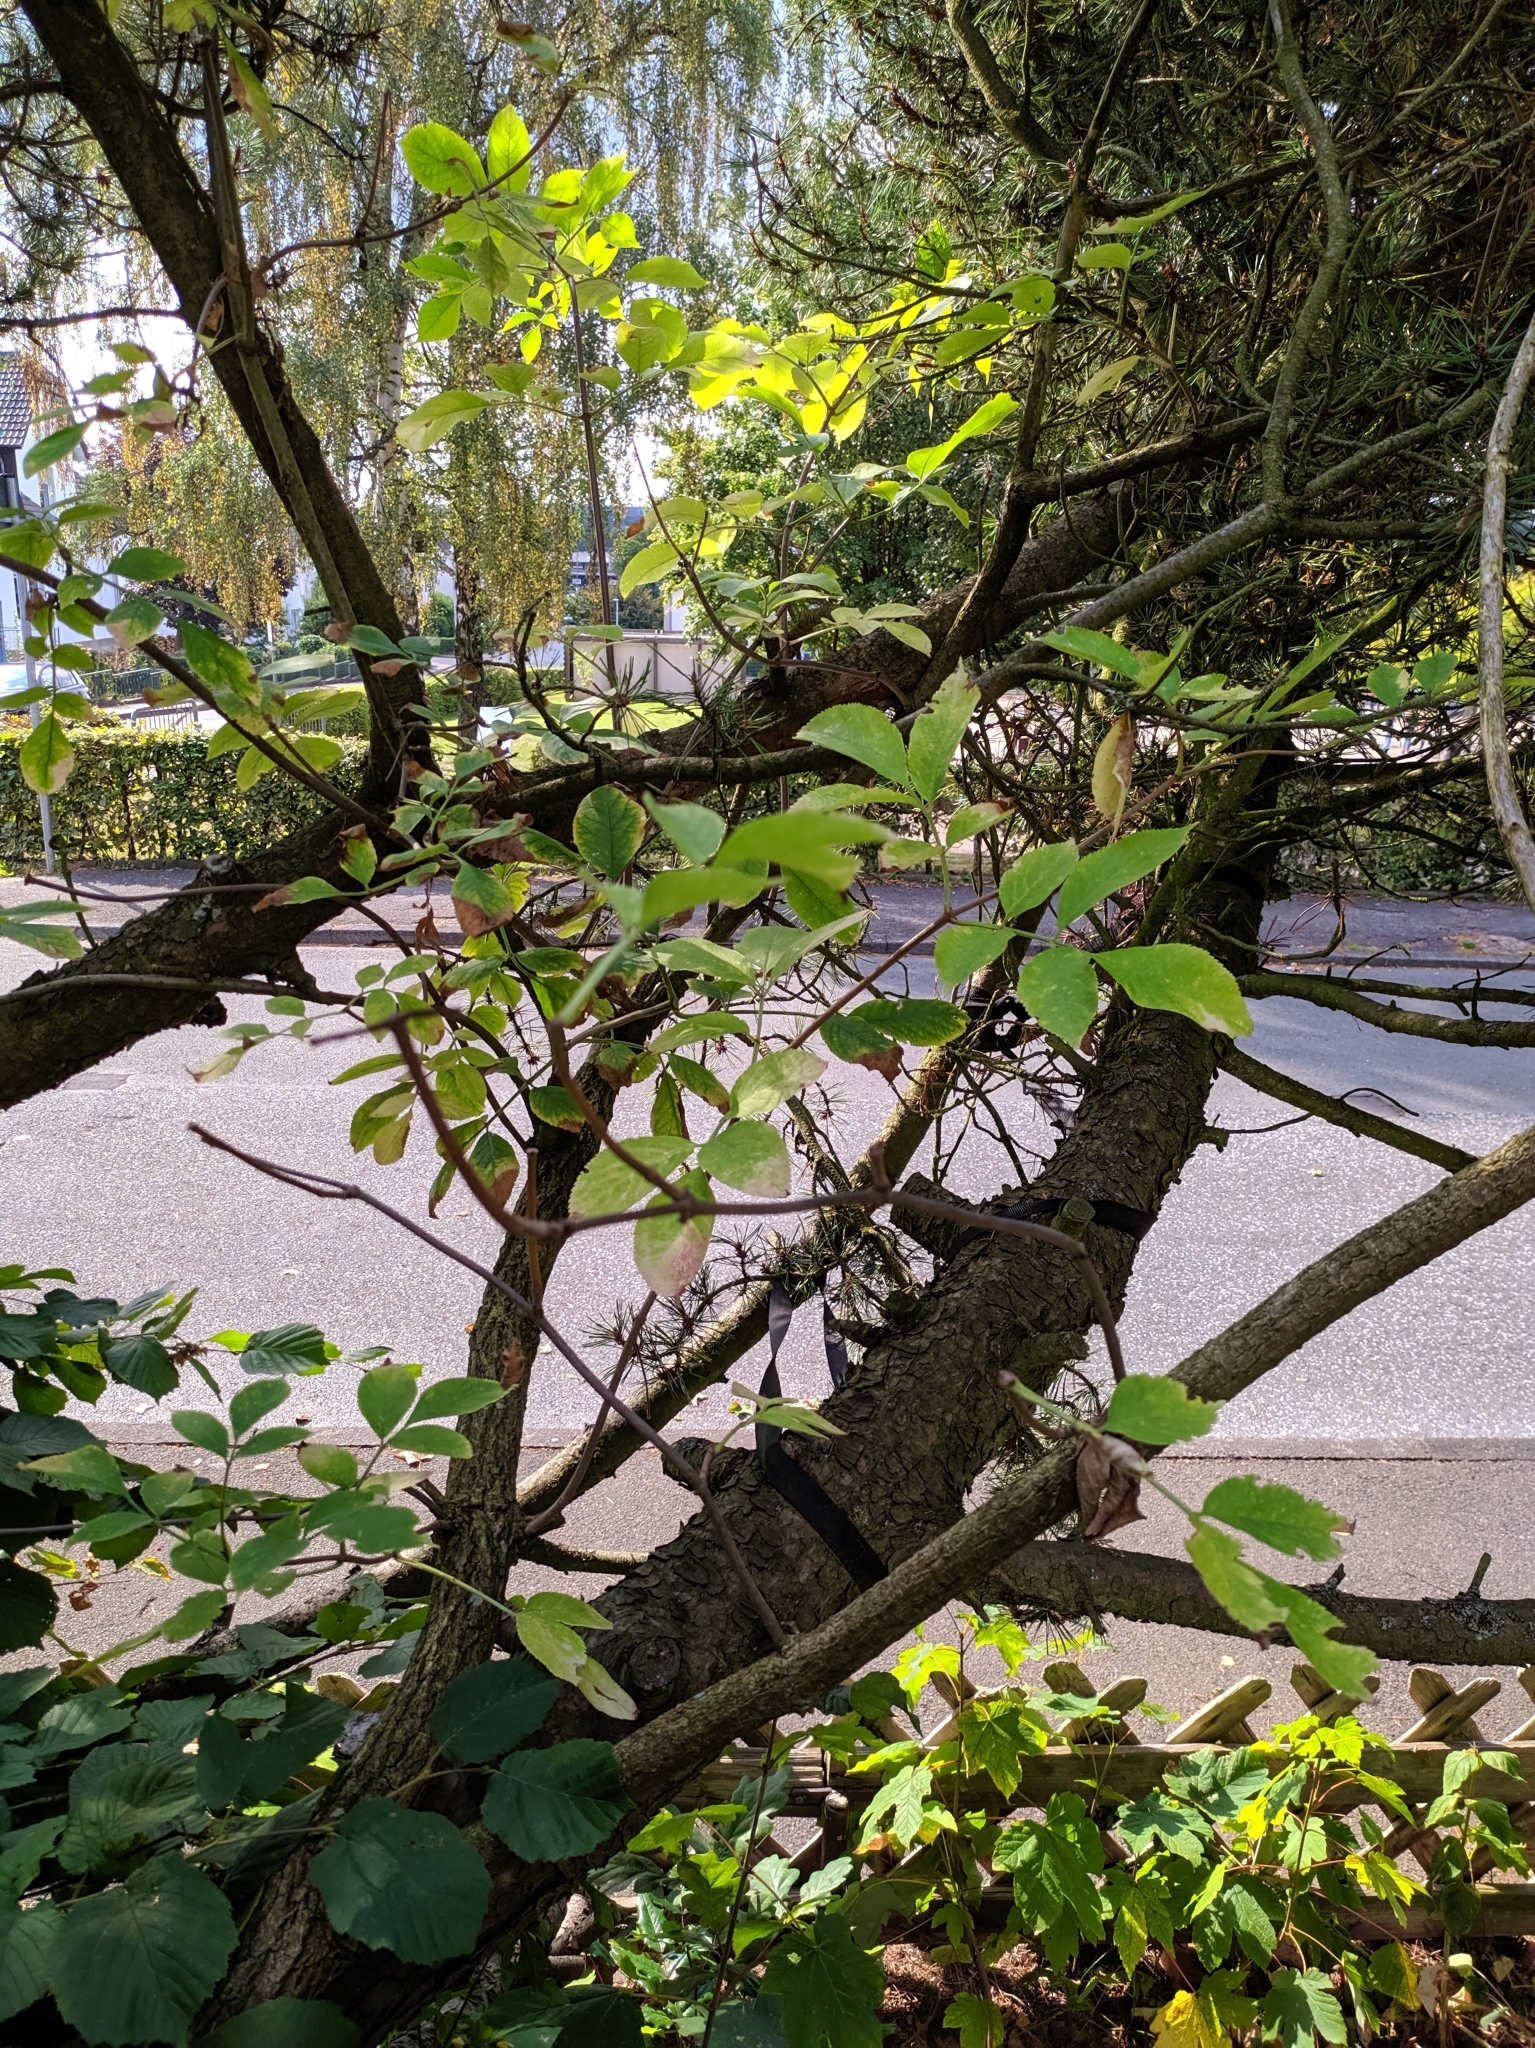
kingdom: Plantae
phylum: Tracheophyta
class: Magnoliopsida
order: Dipsacales
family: Viburnaceae
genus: Sambucus
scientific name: Sambucus nigra
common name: Elder
